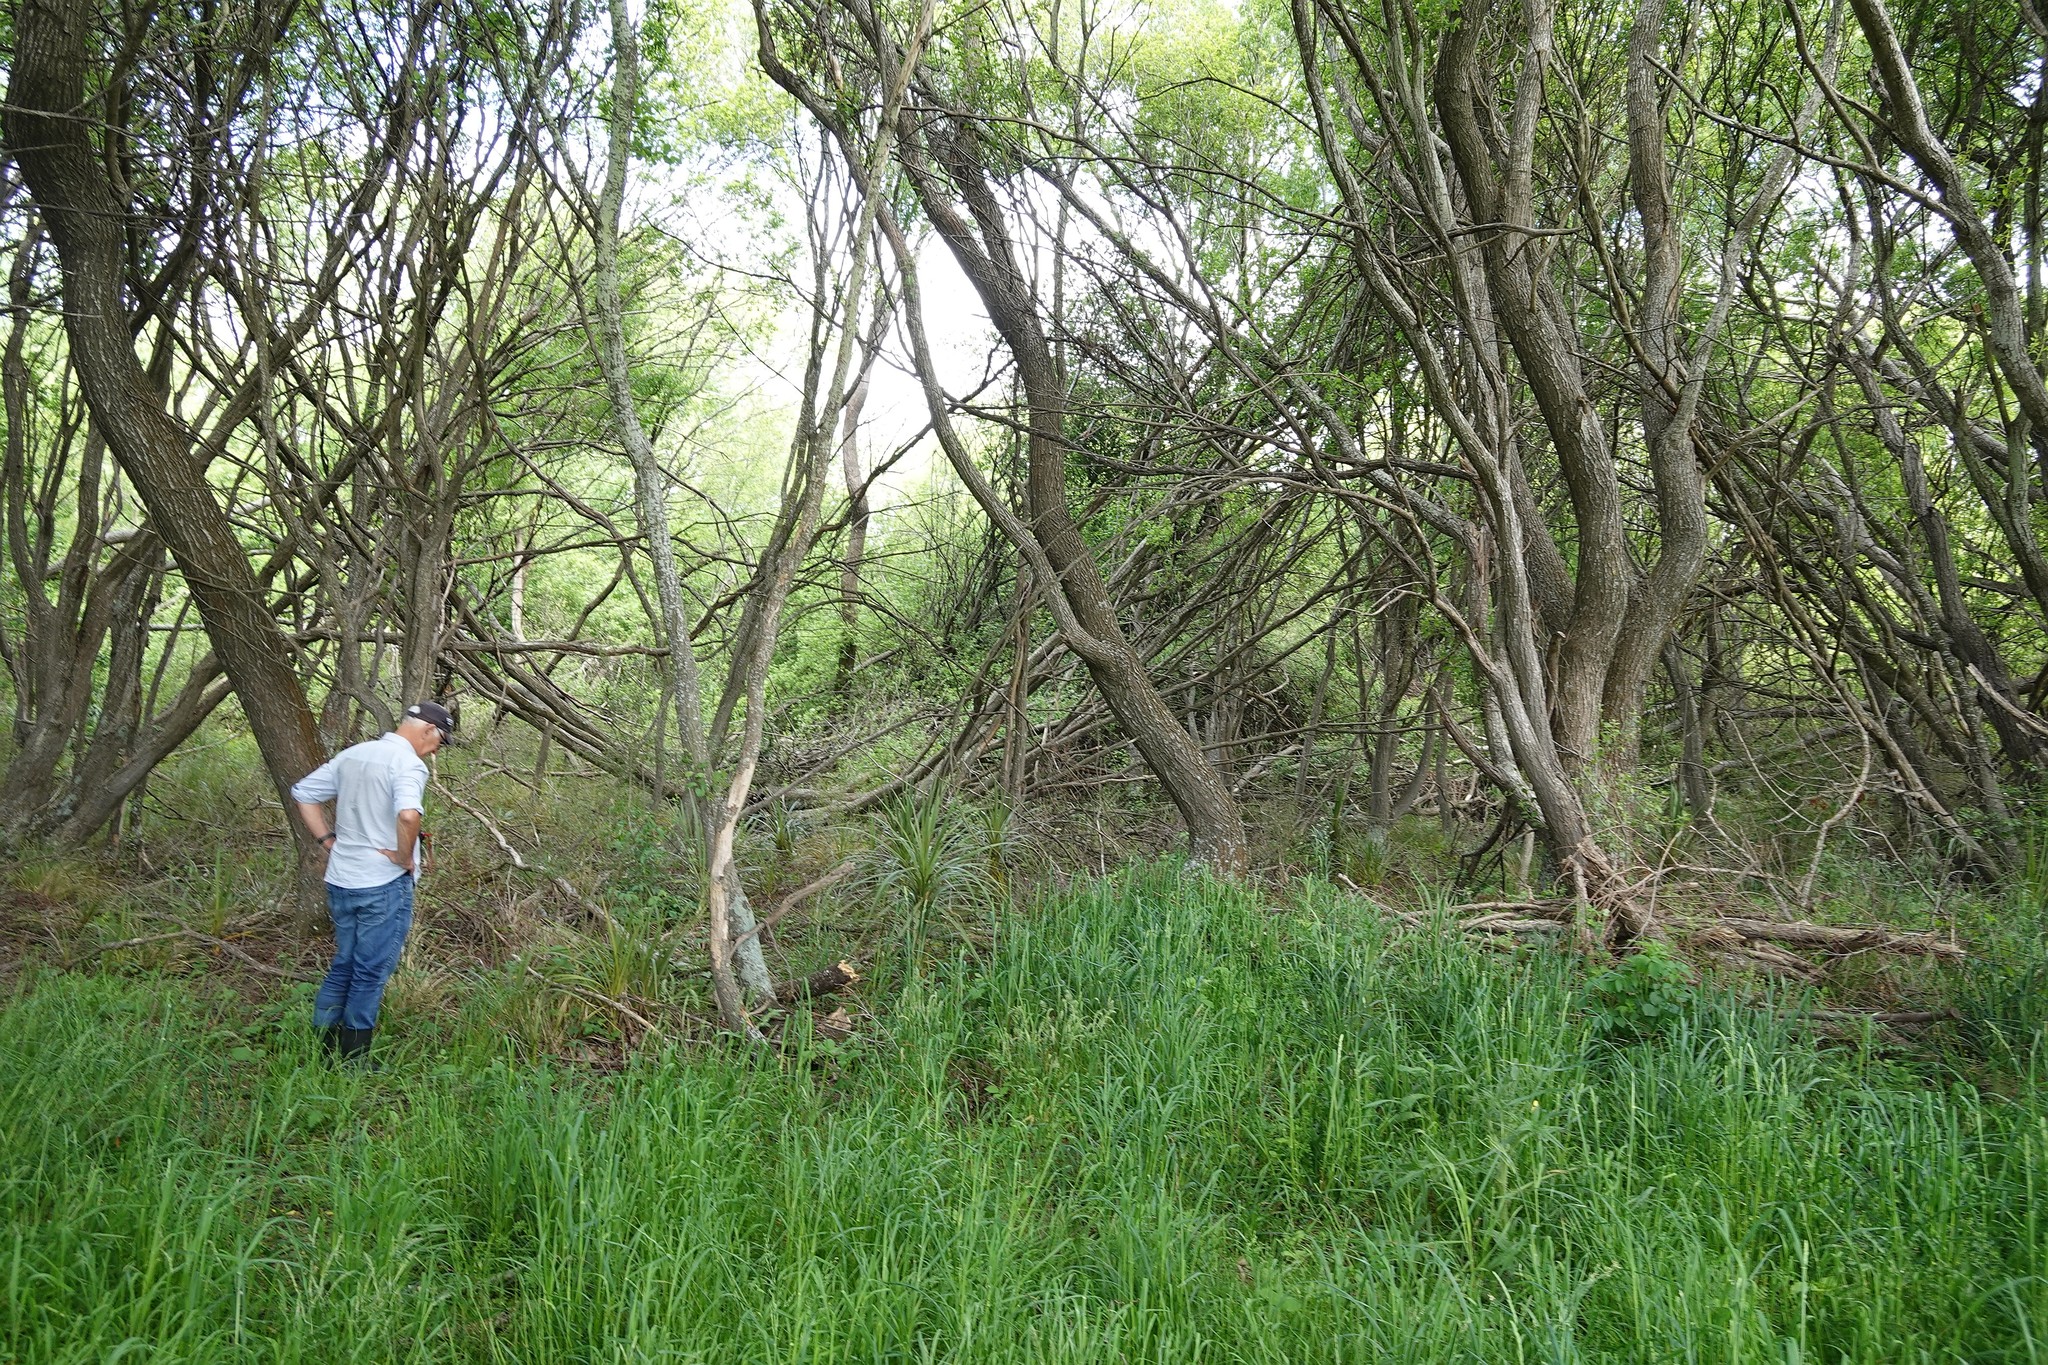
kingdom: Plantae
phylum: Tracheophyta
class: Liliopsida
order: Asparagales
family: Asparagaceae
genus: Cordyline
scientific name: Cordyline australis
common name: Cabbage-palm
